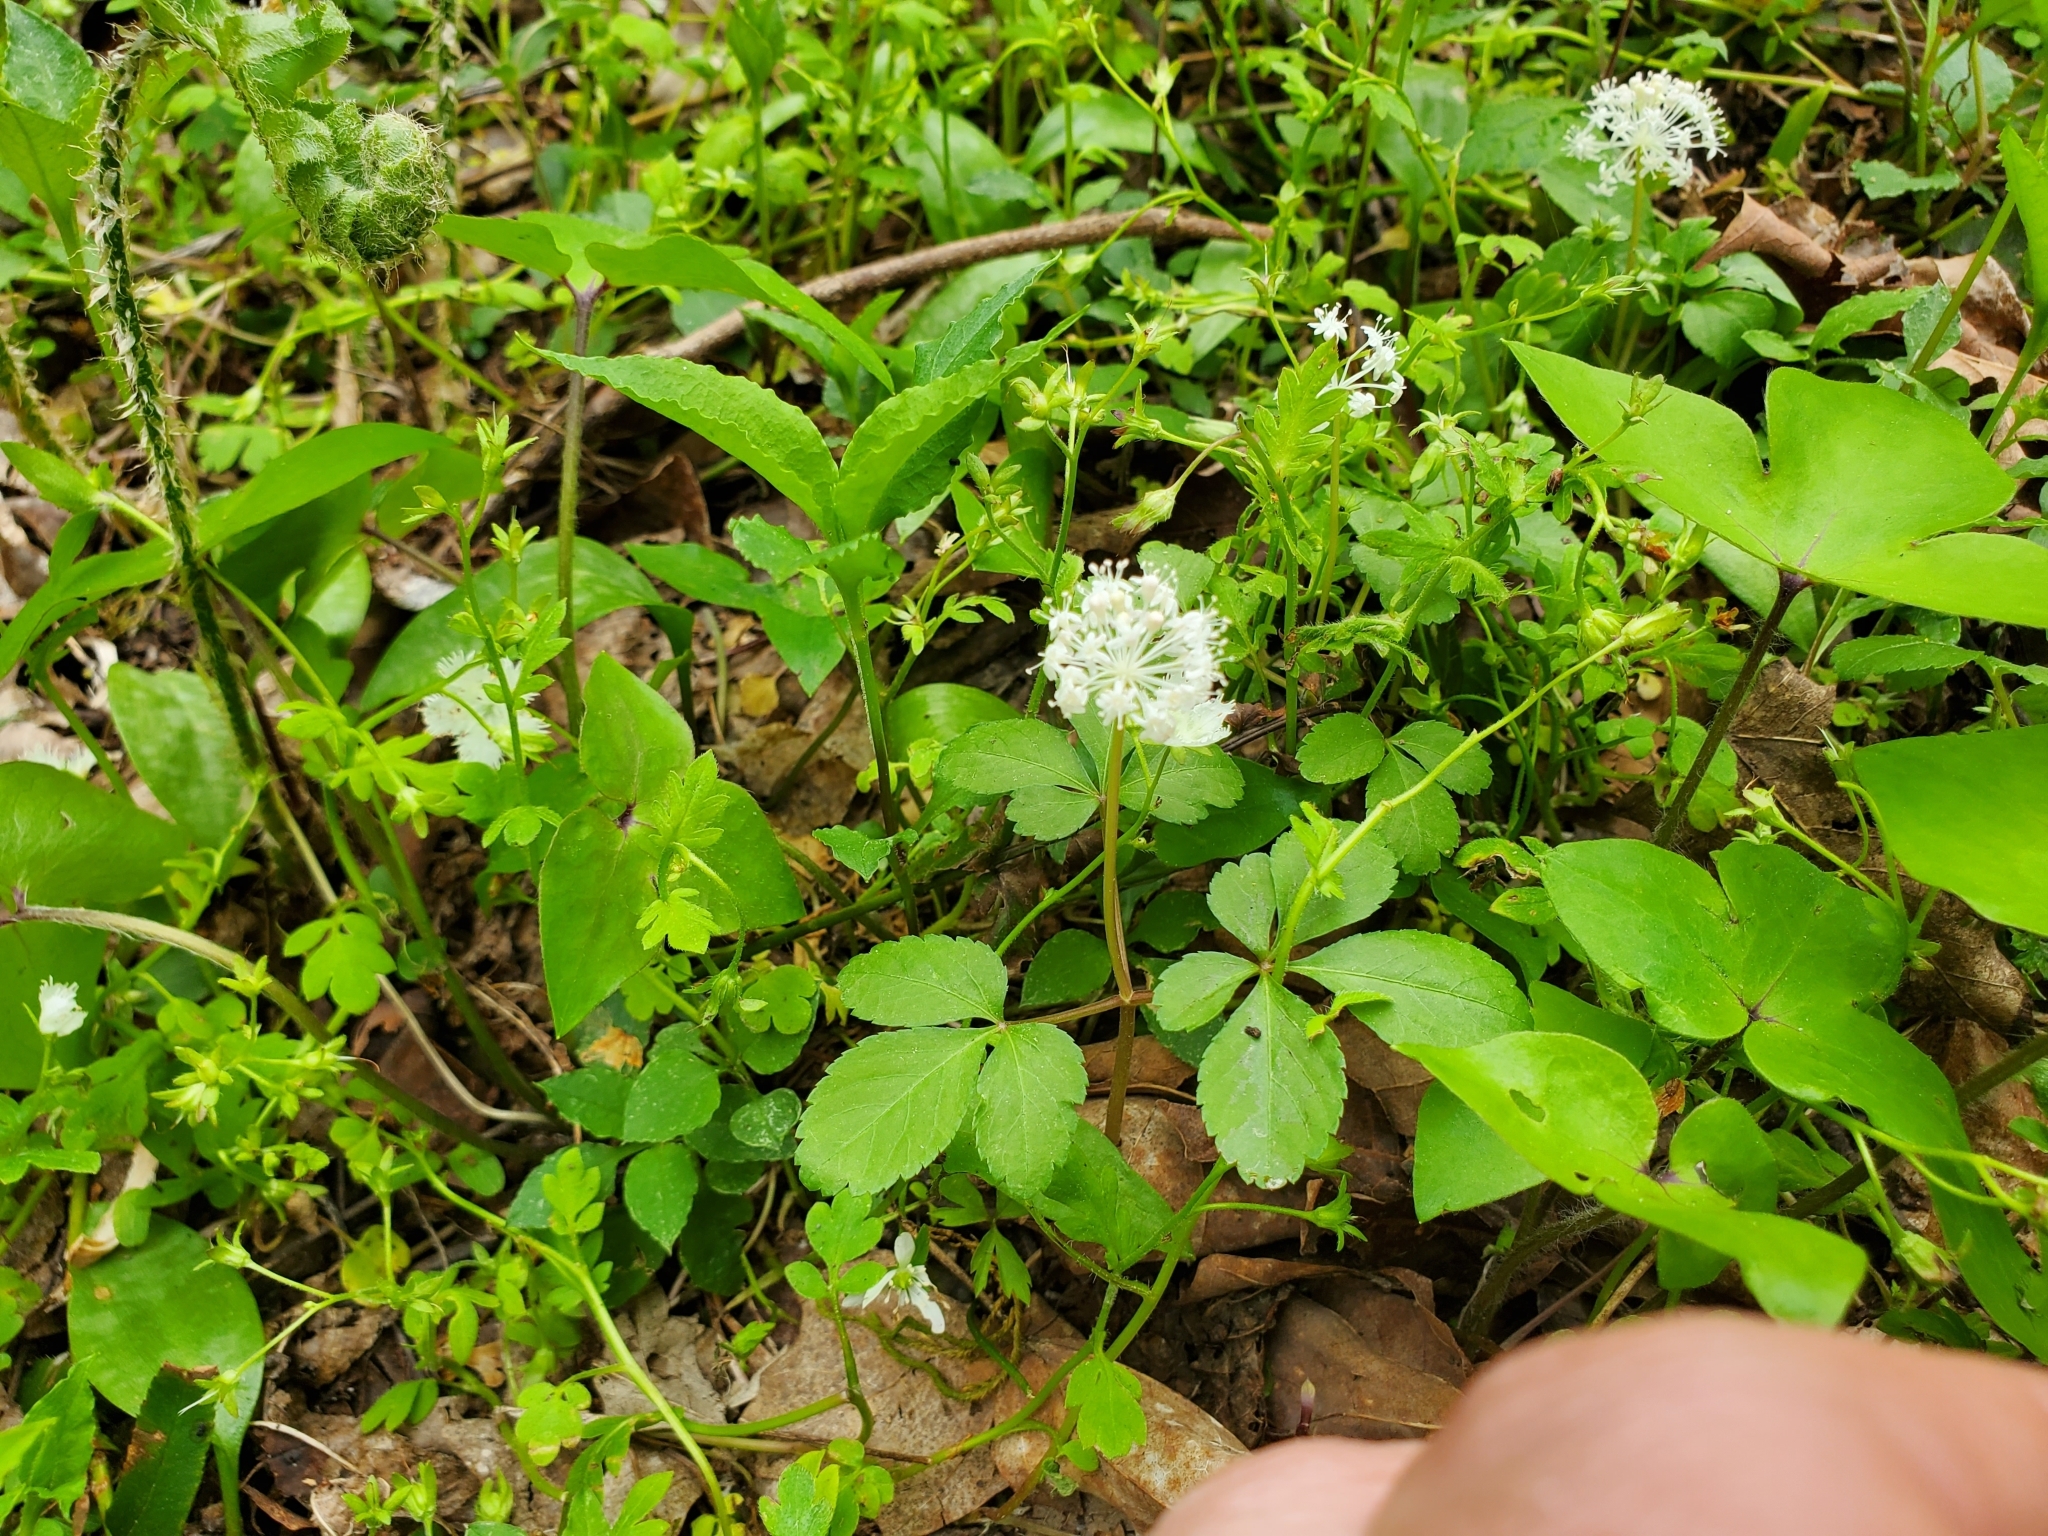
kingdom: Plantae
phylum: Tracheophyta
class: Magnoliopsida
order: Apiales
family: Araliaceae
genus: Panax
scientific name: Panax trifolius
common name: Dwarf ginseng
